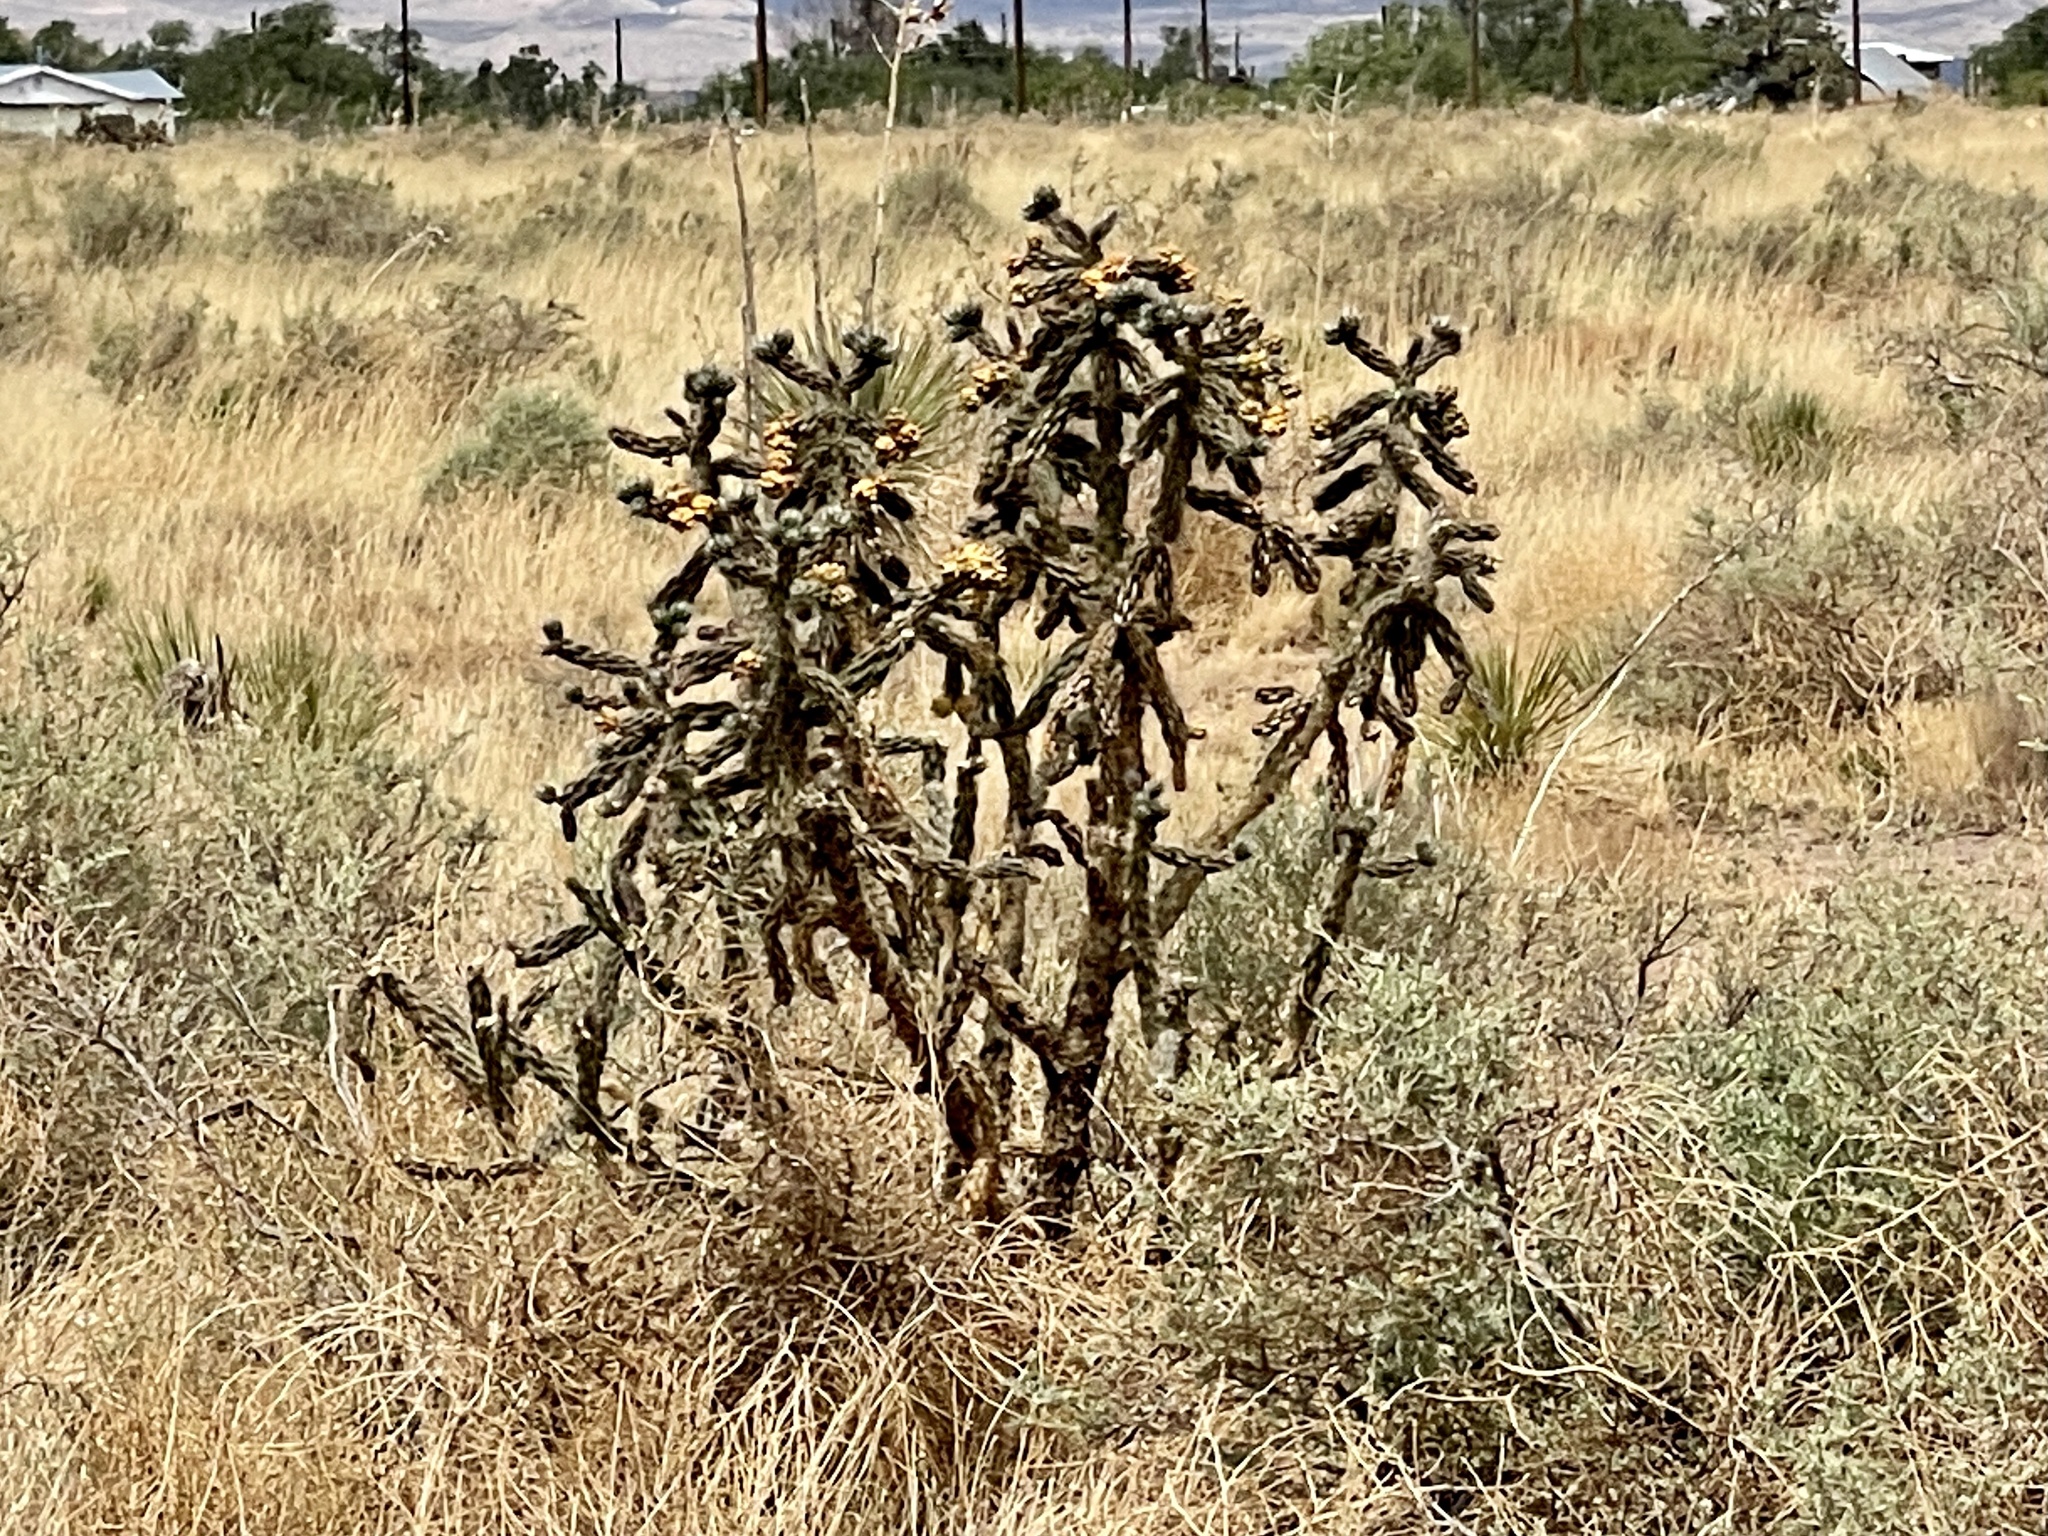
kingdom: Plantae
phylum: Tracheophyta
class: Magnoliopsida
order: Caryophyllales
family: Cactaceae
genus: Cylindropuntia
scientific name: Cylindropuntia imbricata
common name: Candelabrum cactus
